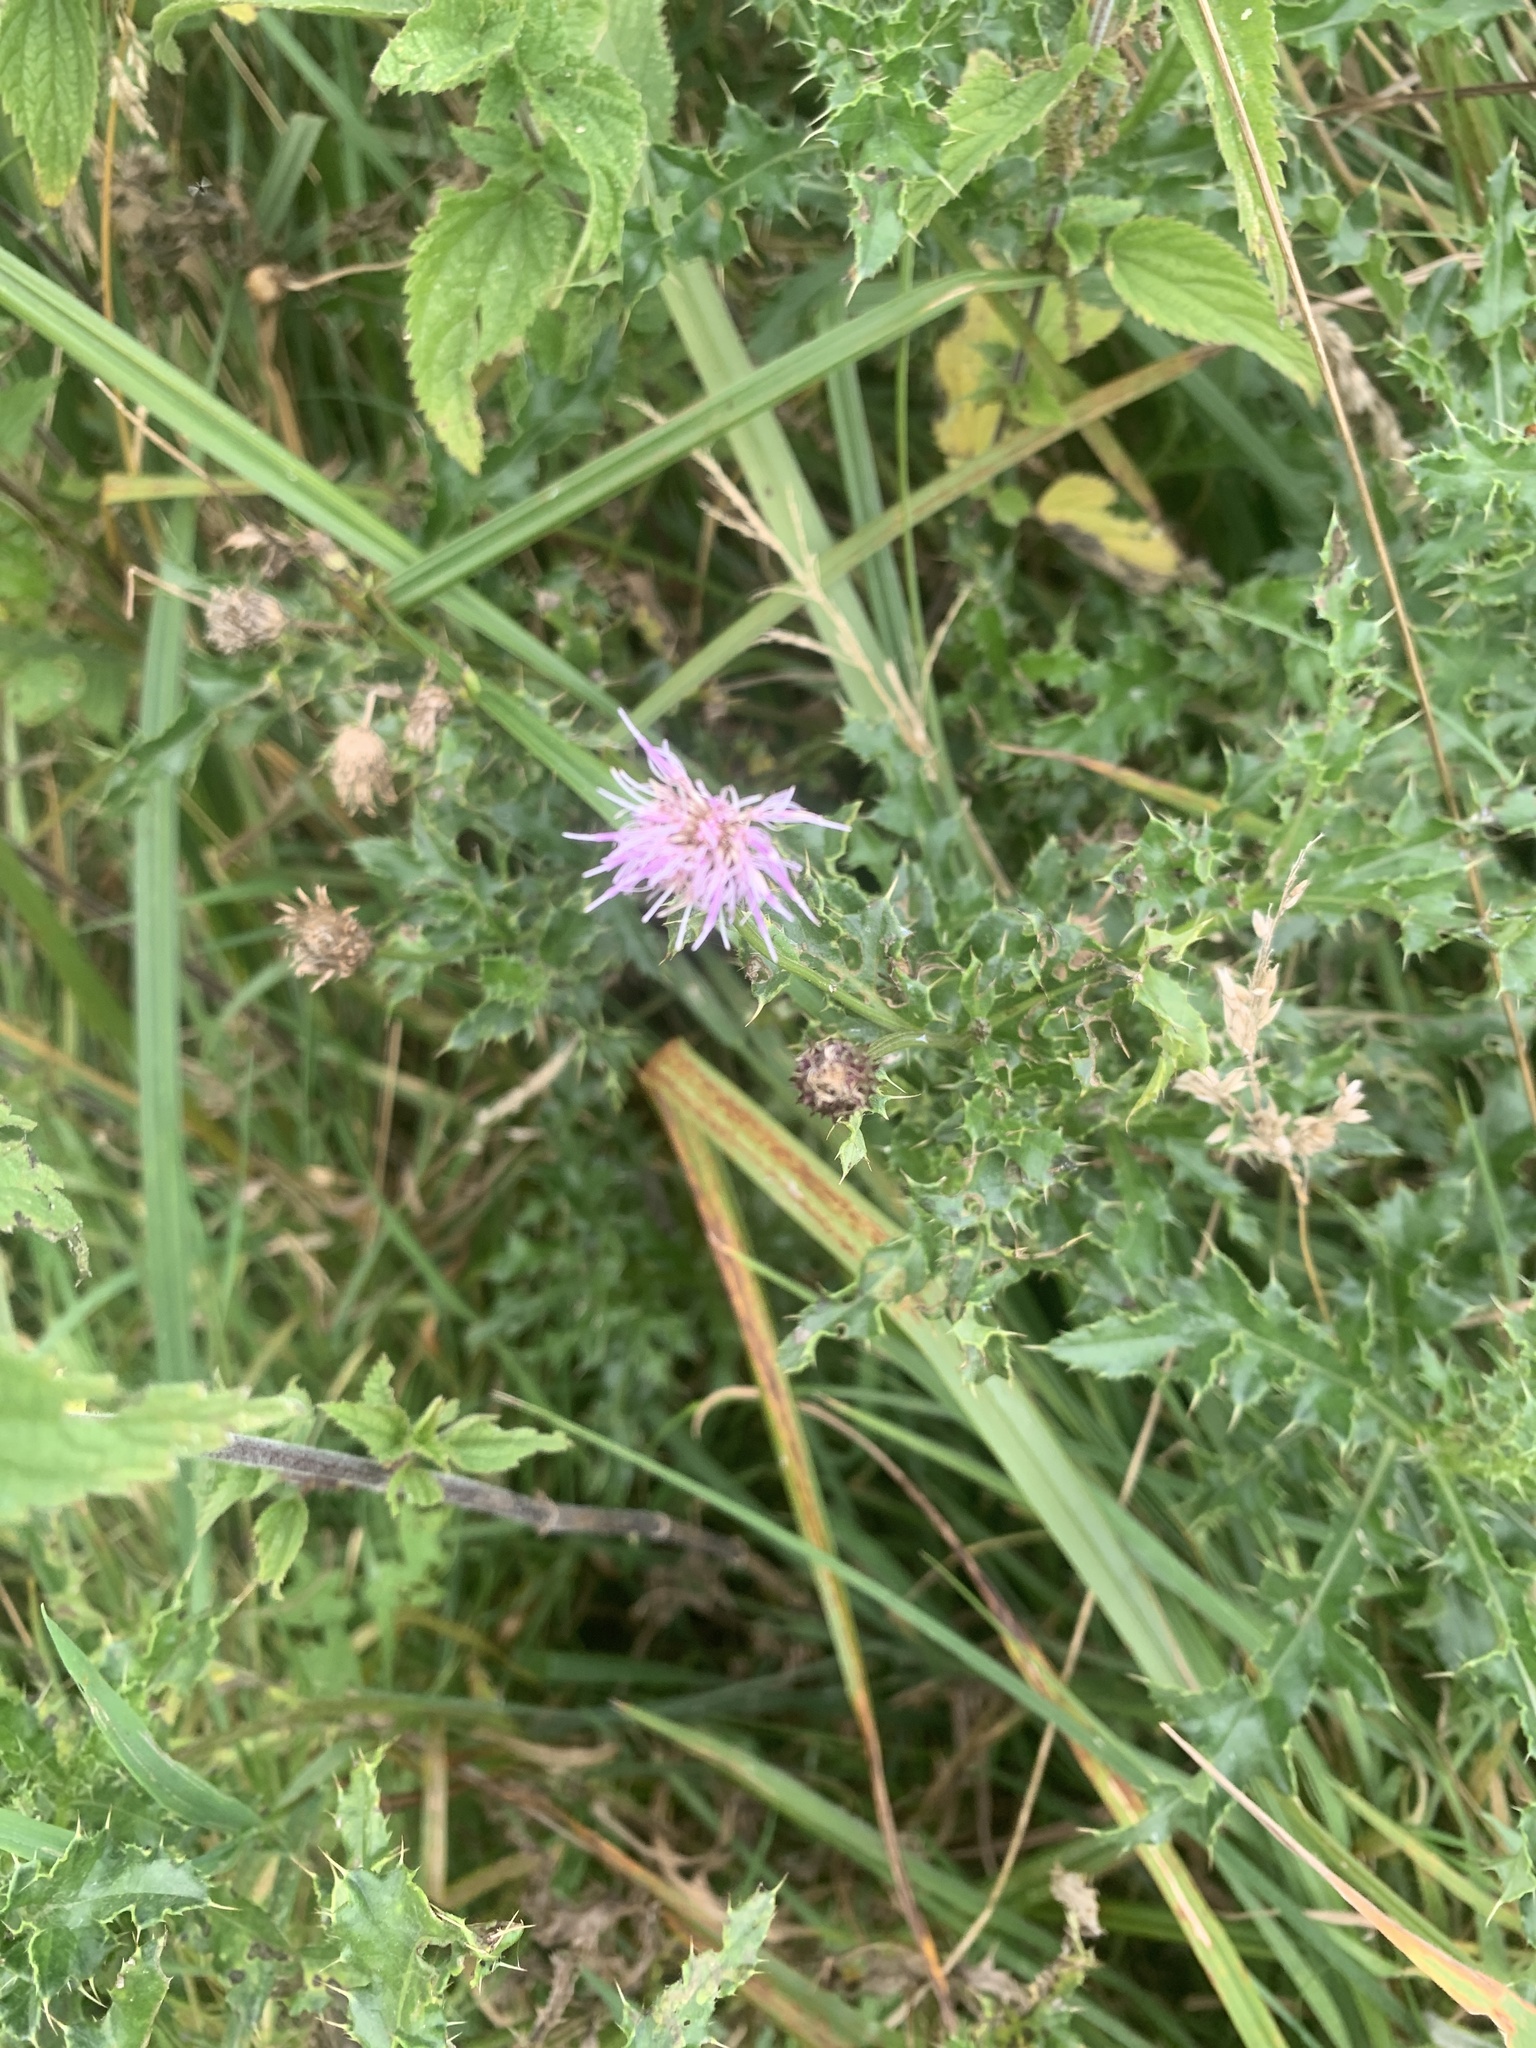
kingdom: Plantae
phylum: Tracheophyta
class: Magnoliopsida
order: Asterales
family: Asteraceae
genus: Cirsium
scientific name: Cirsium arvense
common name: Creeping thistle
